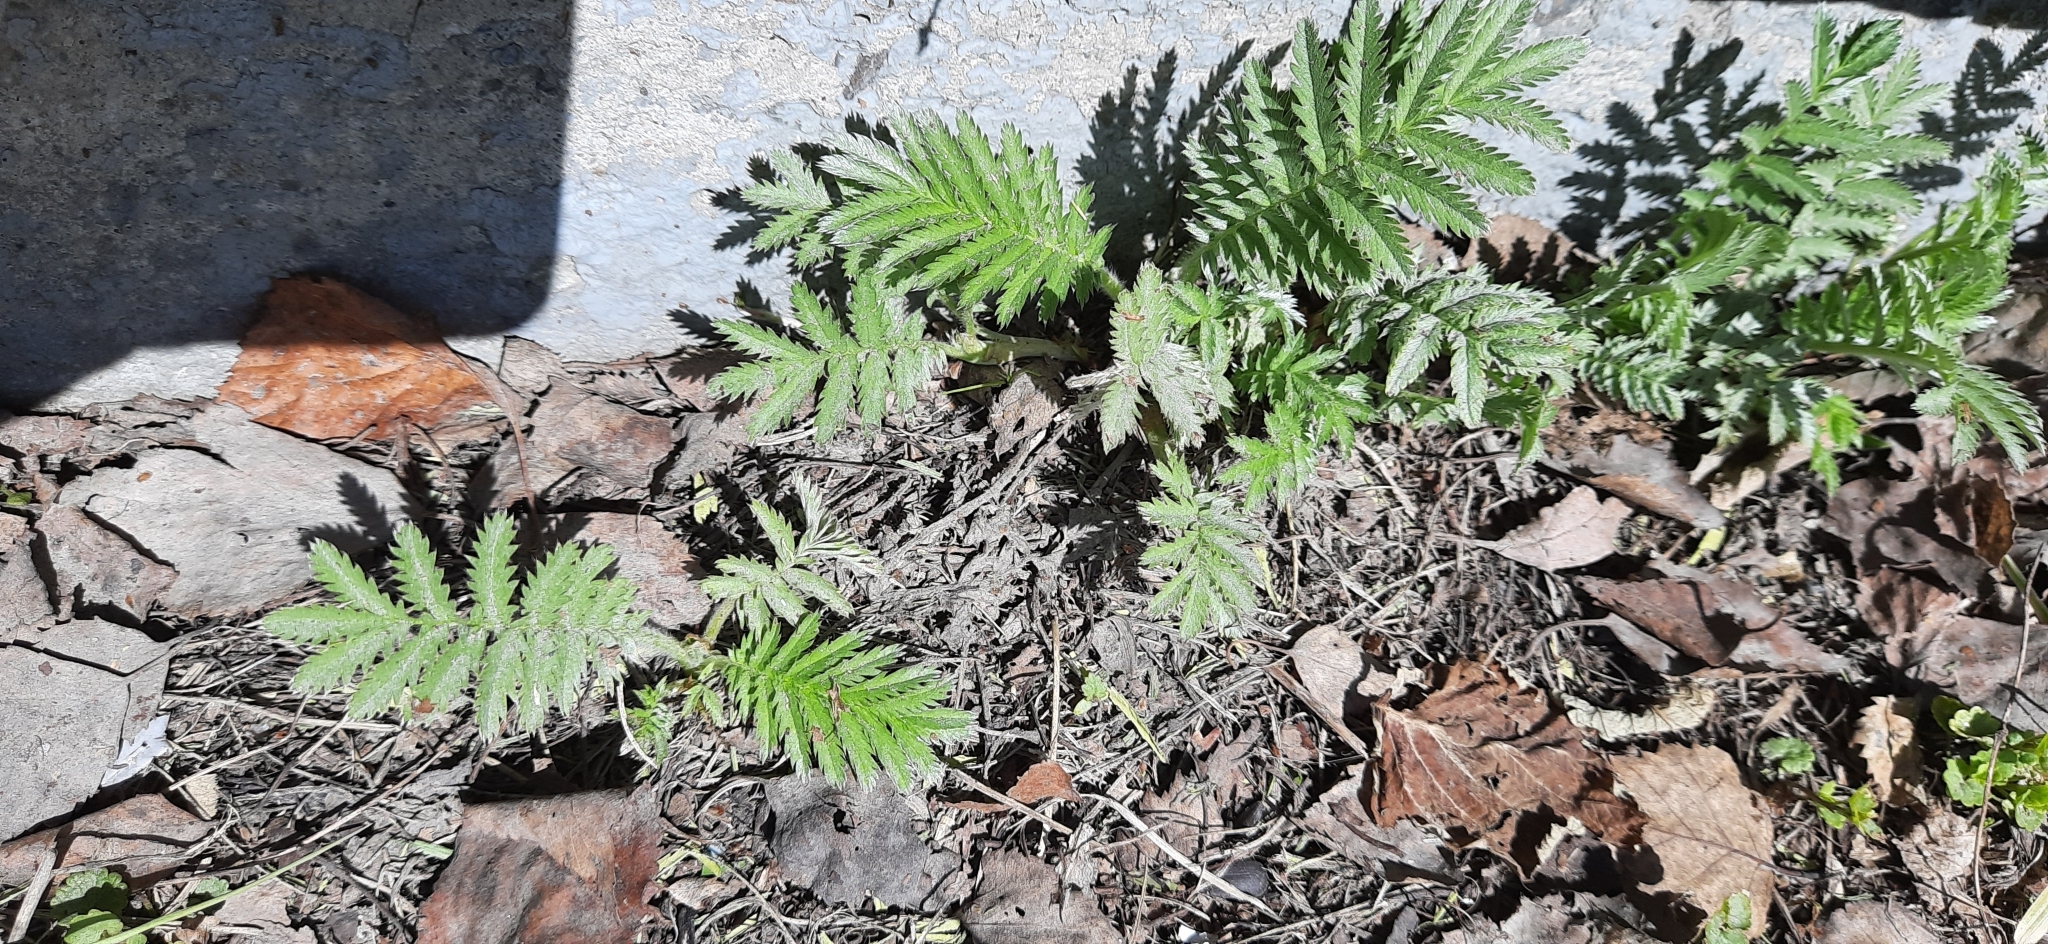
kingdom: Plantae
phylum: Tracheophyta
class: Magnoliopsida
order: Rosales
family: Rosaceae
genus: Argentina
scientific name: Argentina anserina
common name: Common silverweed
